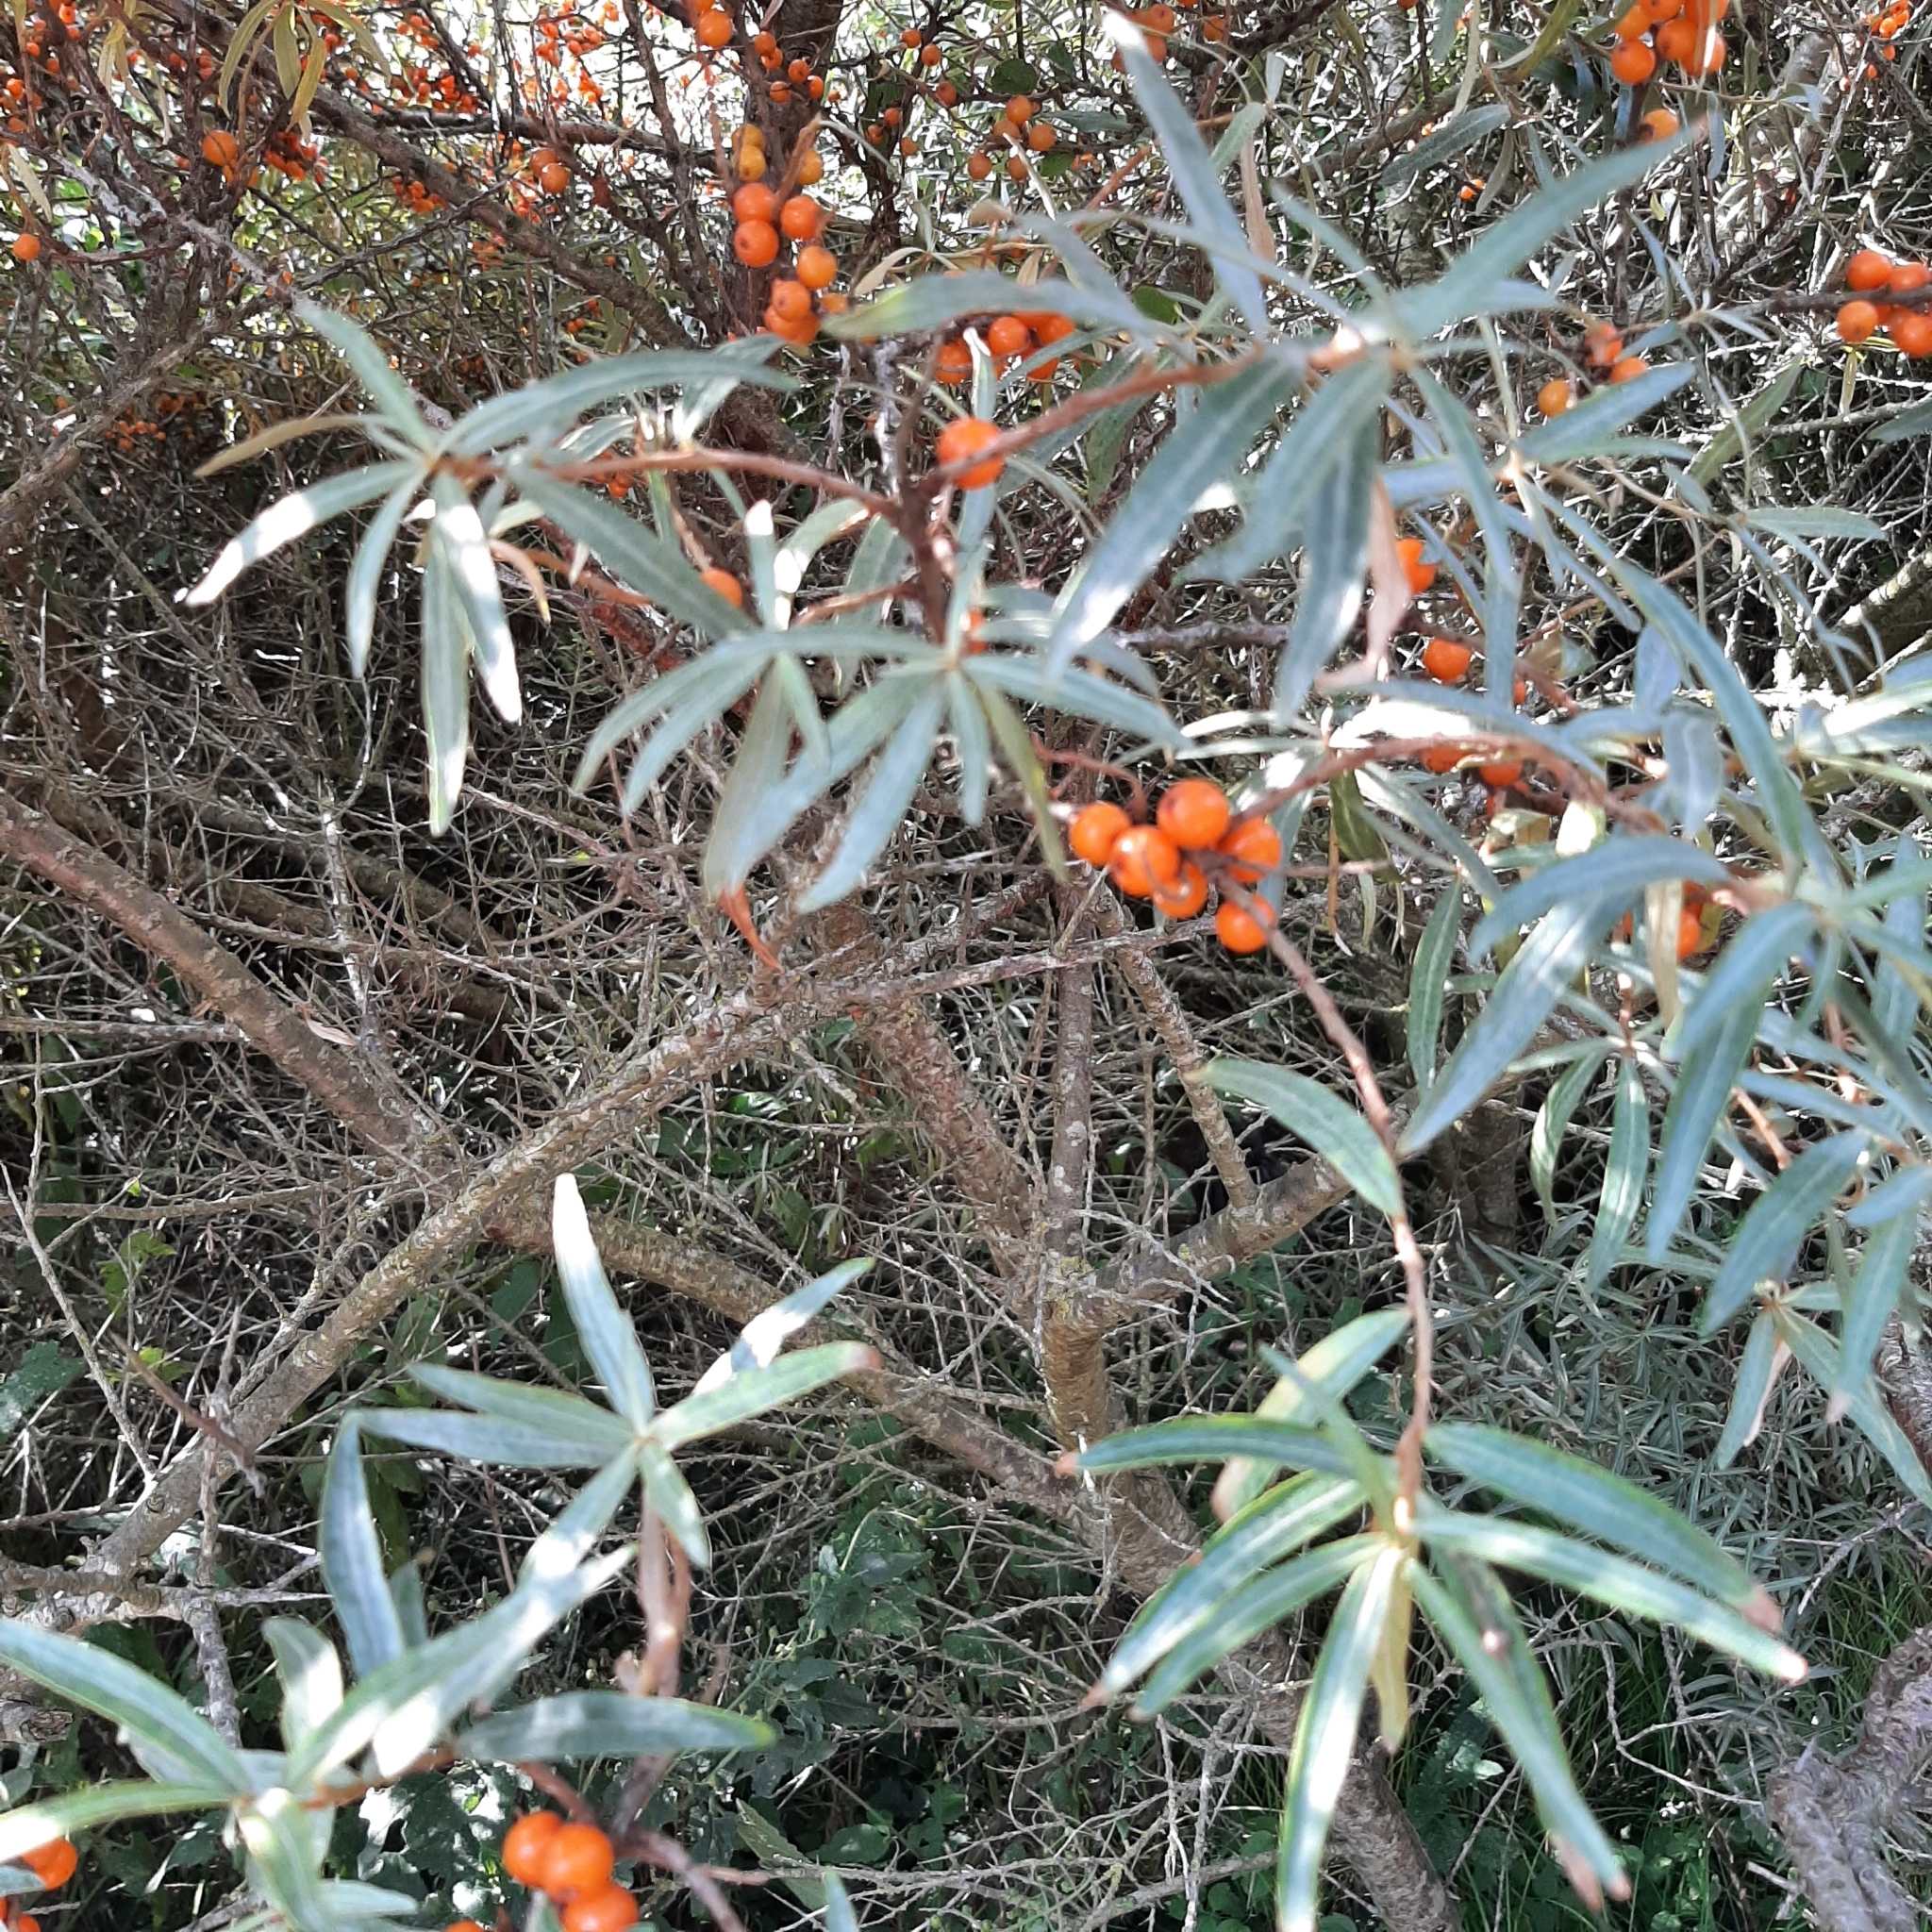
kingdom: Plantae
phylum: Tracheophyta
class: Magnoliopsida
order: Rosales
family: Elaeagnaceae
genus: Hippophae
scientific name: Hippophae rhamnoides
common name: Sea-buckthorn
